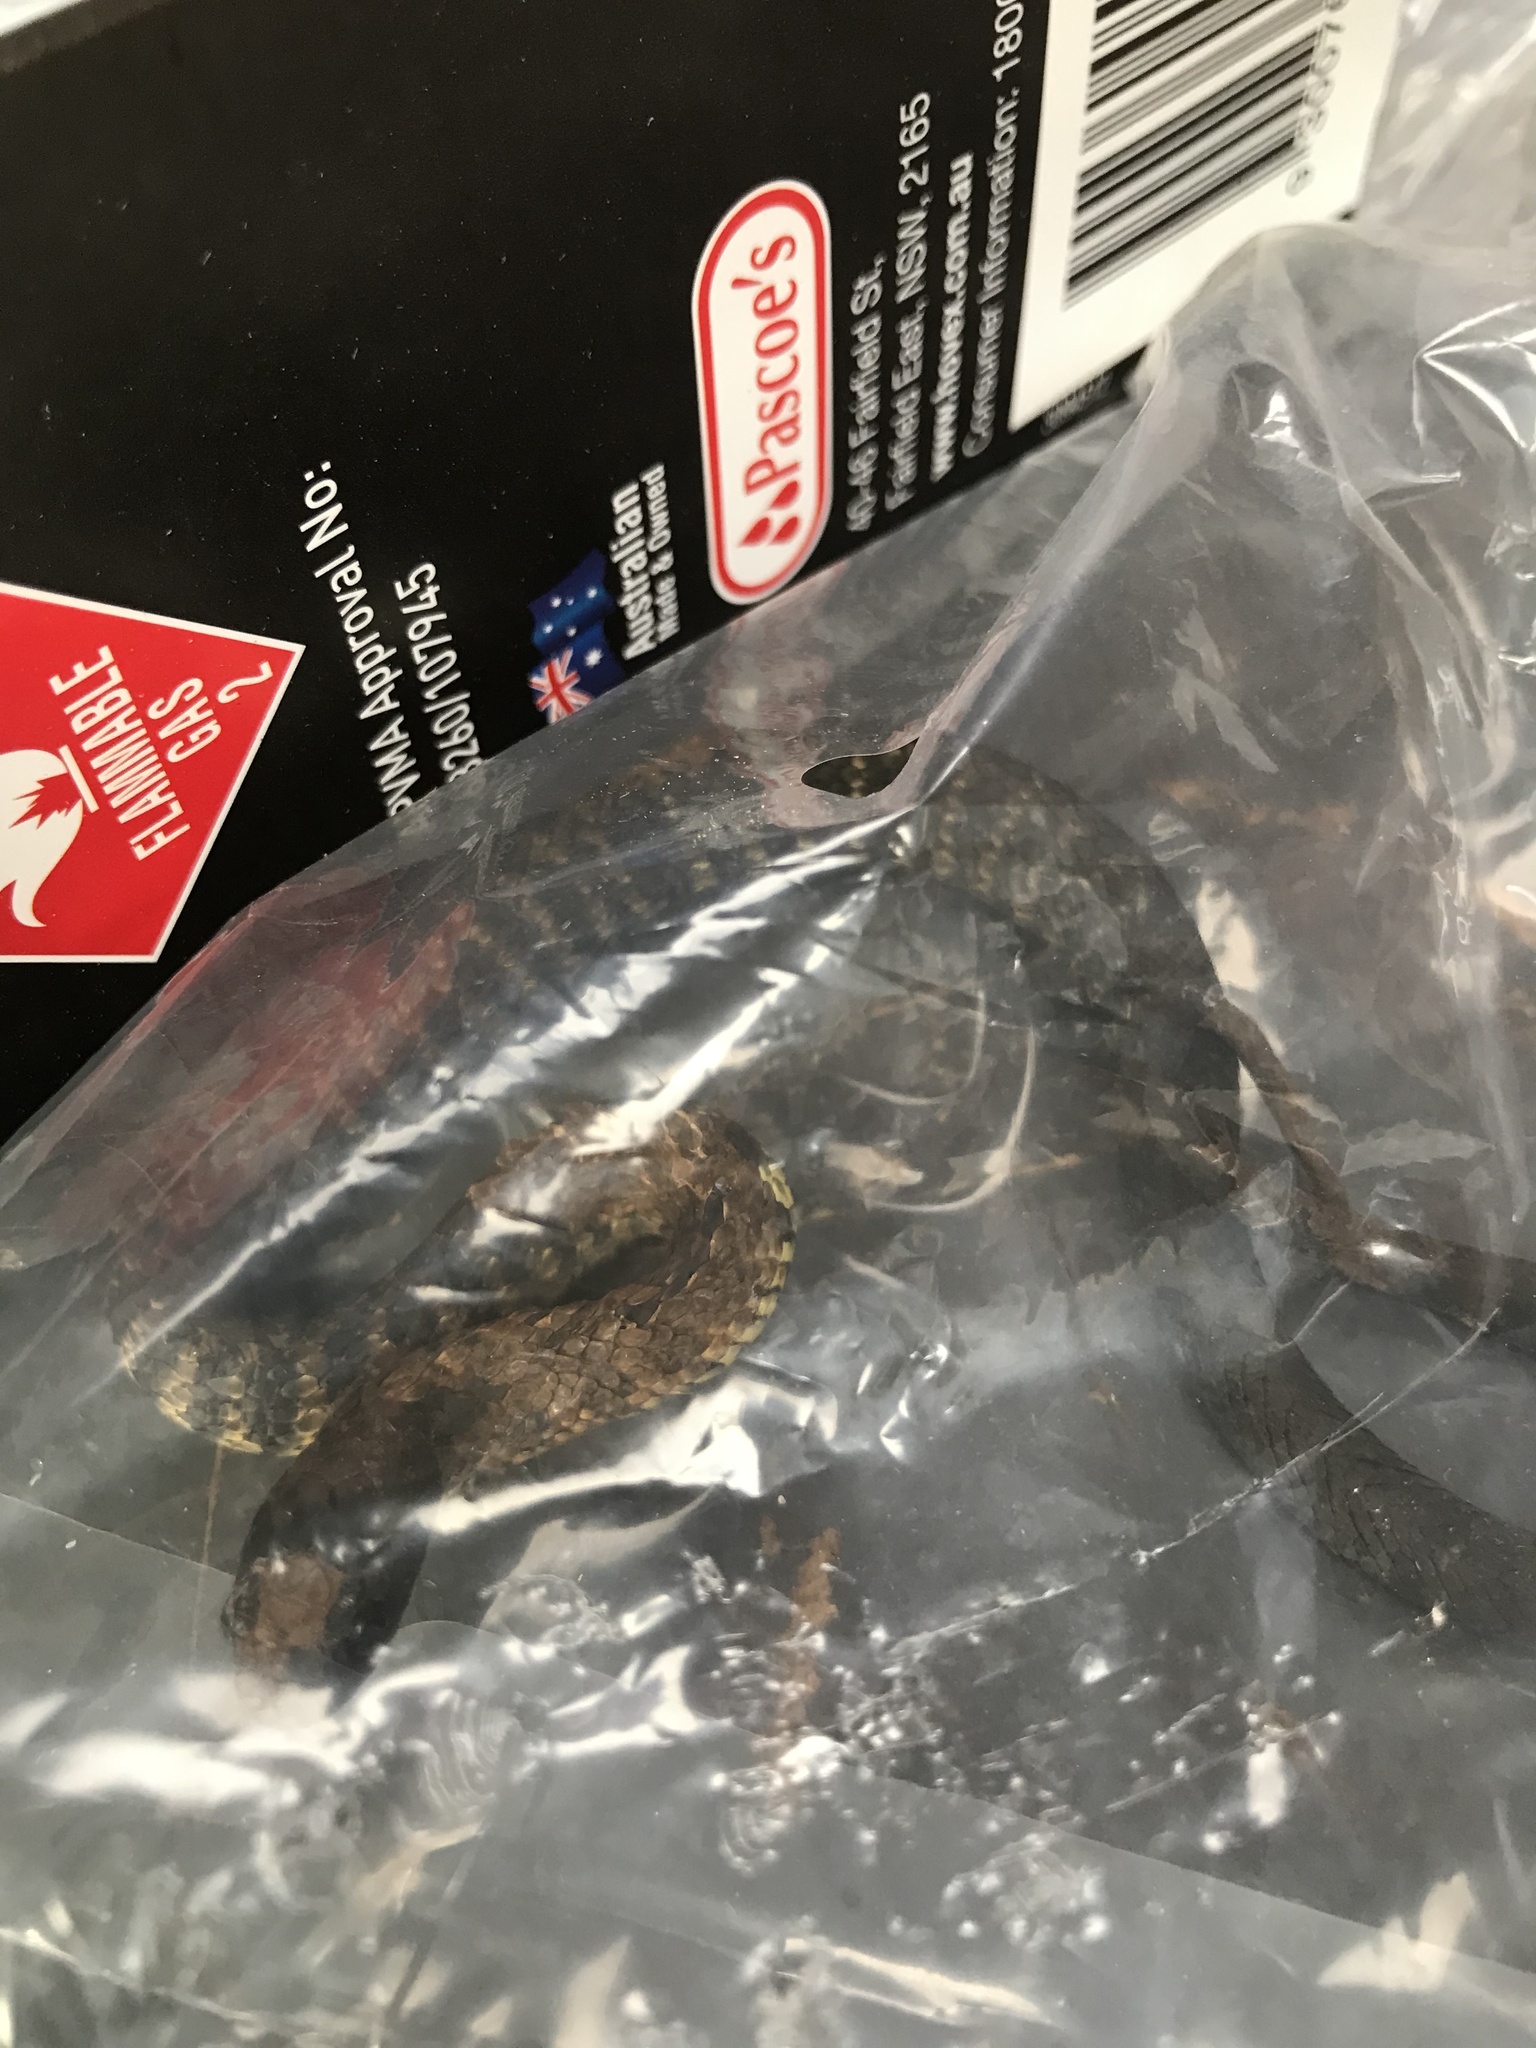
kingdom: Animalia
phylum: Chordata
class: Squamata
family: Elapidae
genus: Notechis
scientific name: Notechis scutatus
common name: Mainland tiger snake
